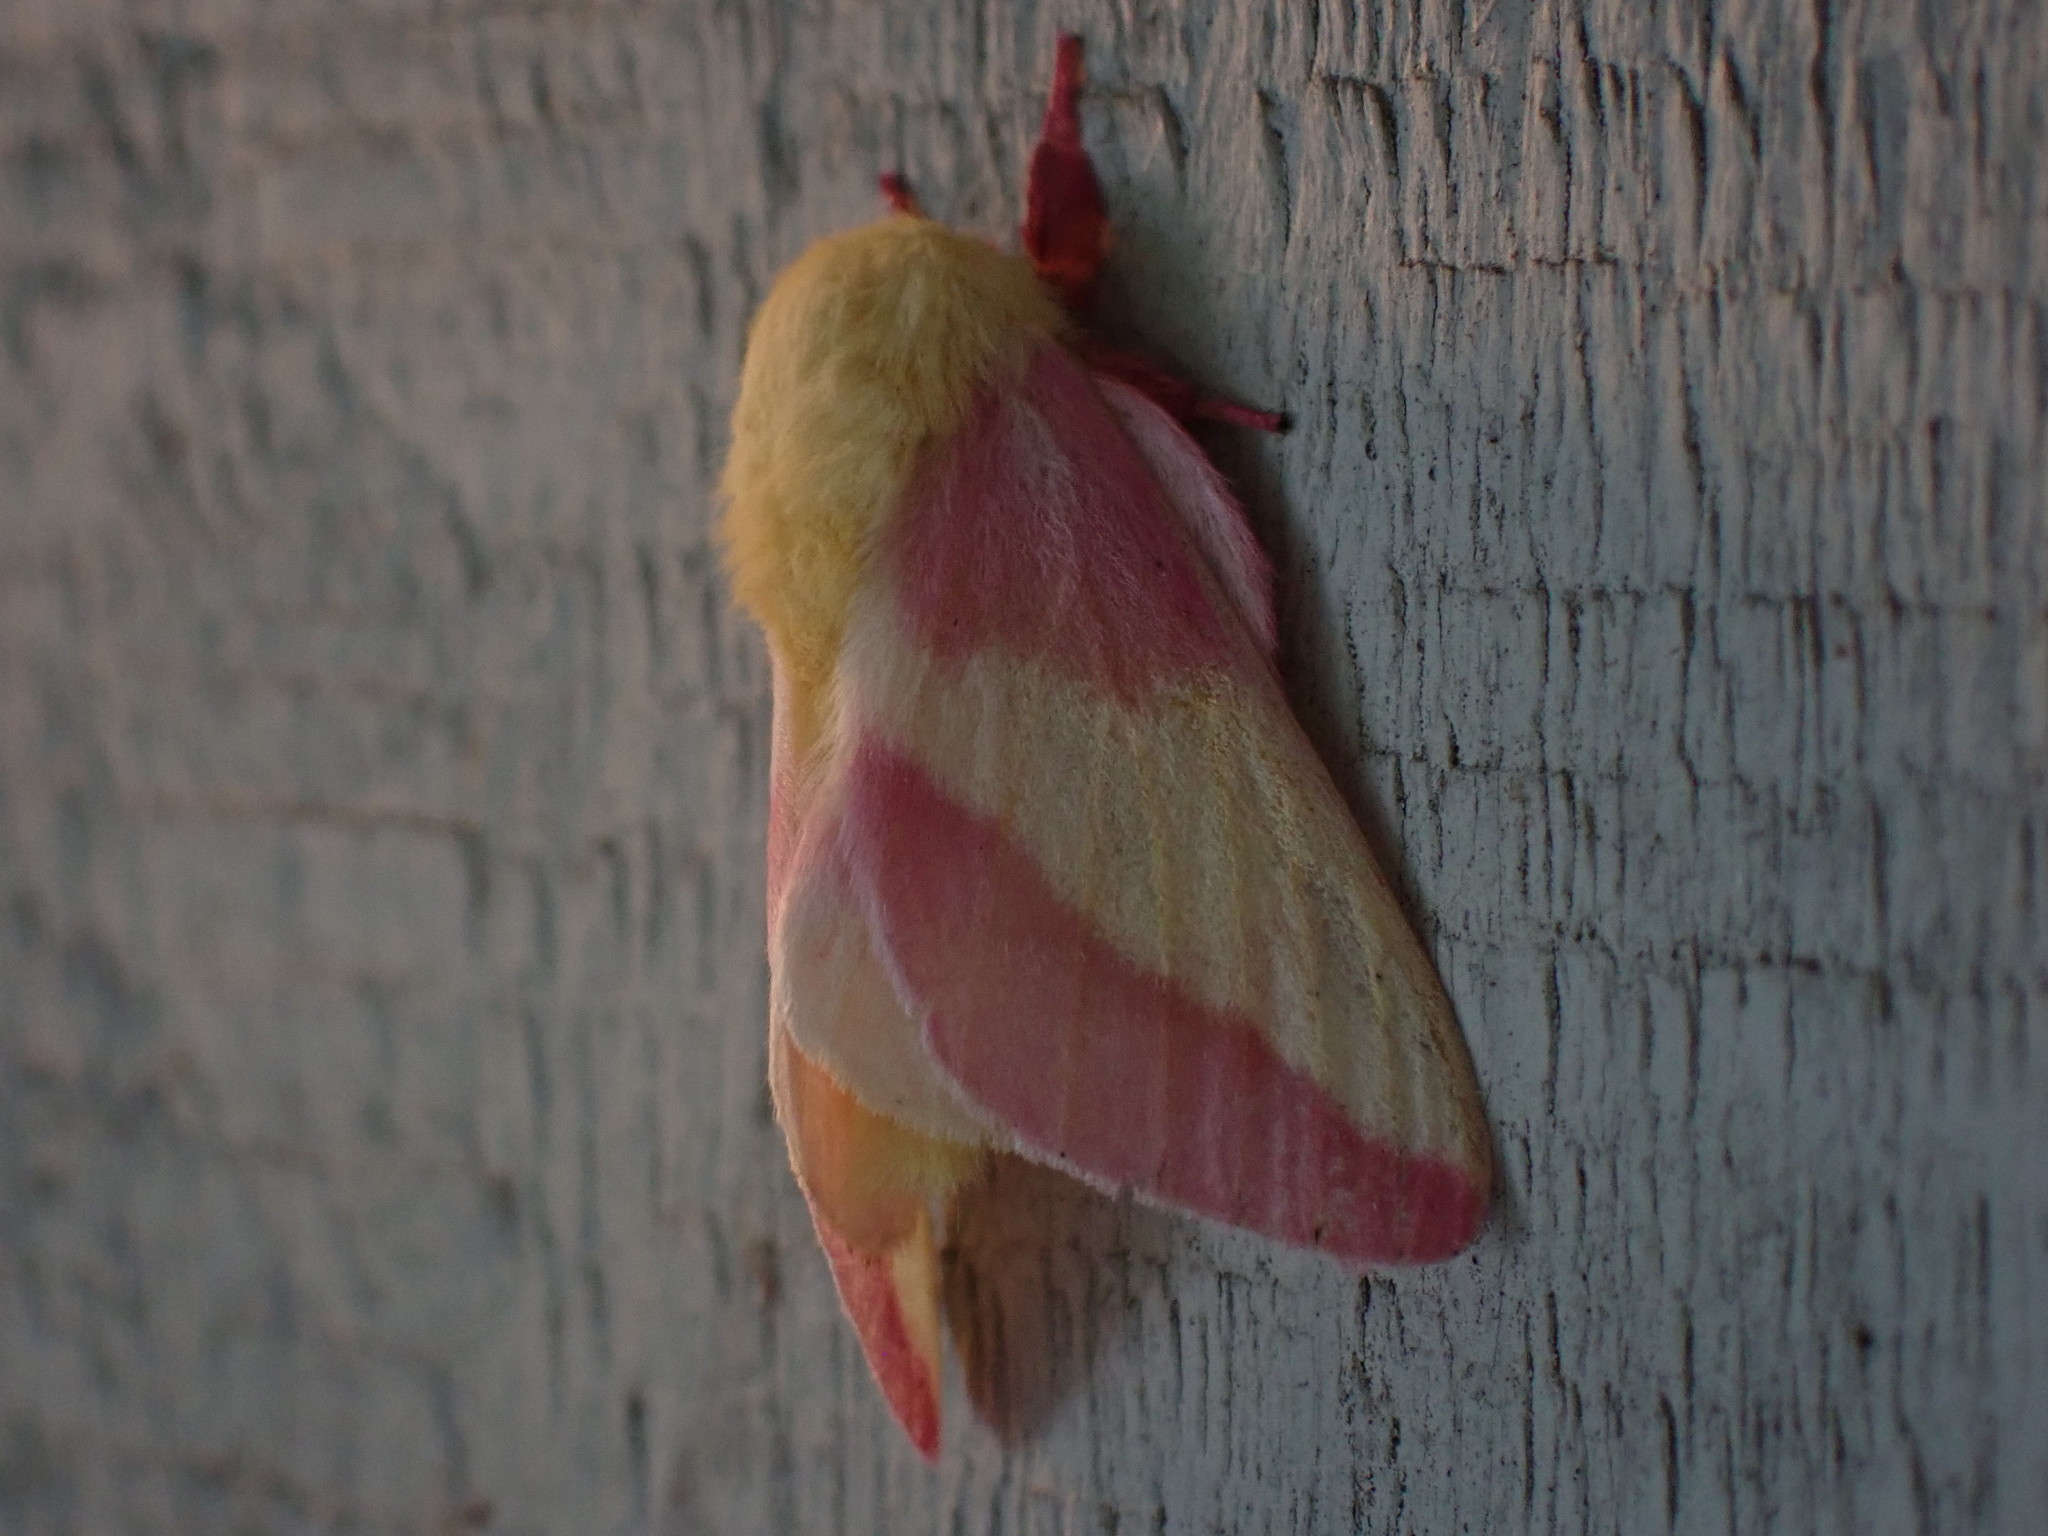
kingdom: Animalia
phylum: Arthropoda
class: Insecta
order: Lepidoptera
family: Saturniidae
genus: Dryocampa
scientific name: Dryocampa rubicunda
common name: Rosy maple moth
